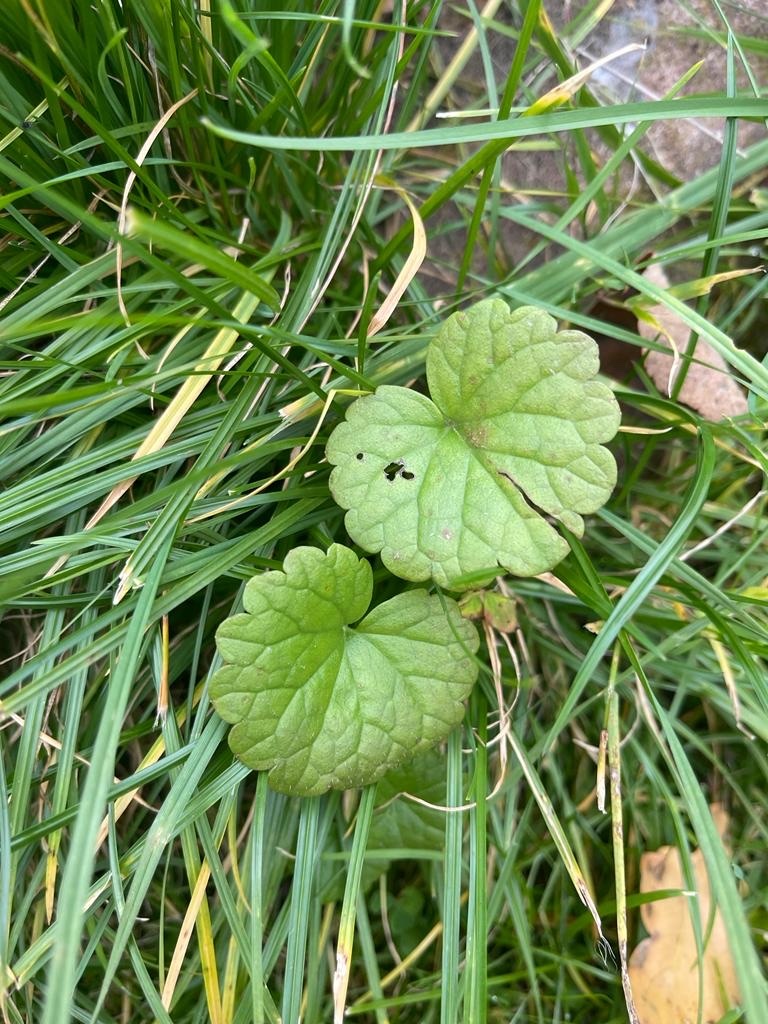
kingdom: Plantae
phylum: Tracheophyta
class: Magnoliopsida
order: Lamiales
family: Lamiaceae
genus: Glechoma
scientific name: Glechoma hederacea
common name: Ground ivy
